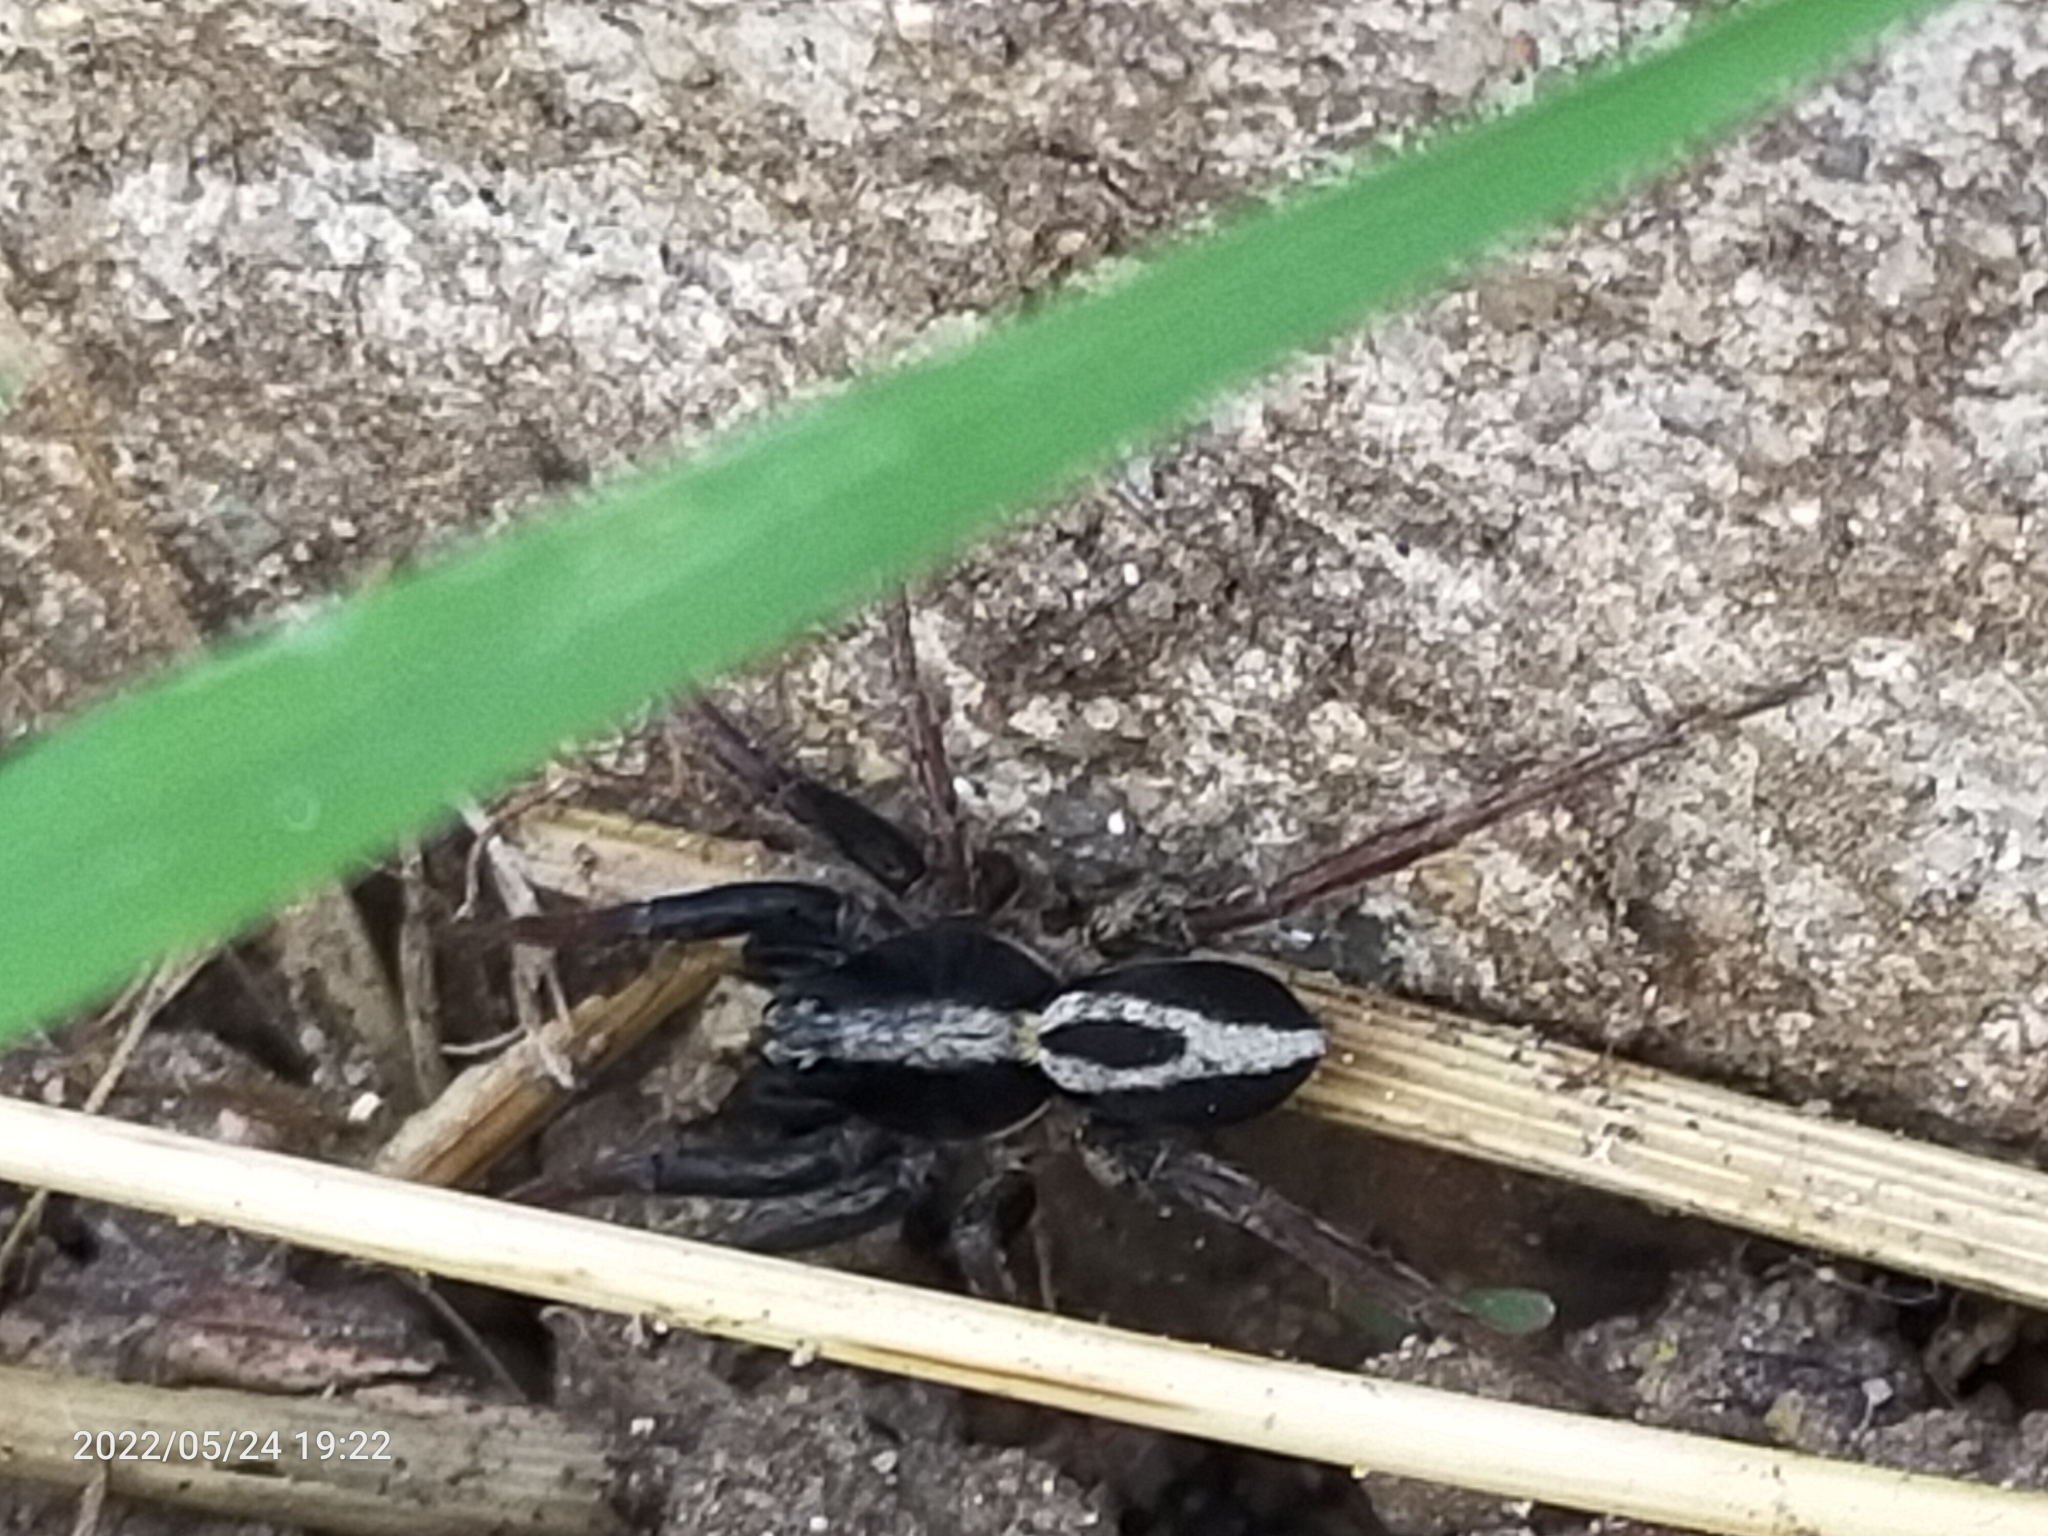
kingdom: Animalia
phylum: Arthropoda
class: Arachnida
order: Araneae
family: Lycosidae
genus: Alopecosa
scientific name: Alopecosa albofasciata
